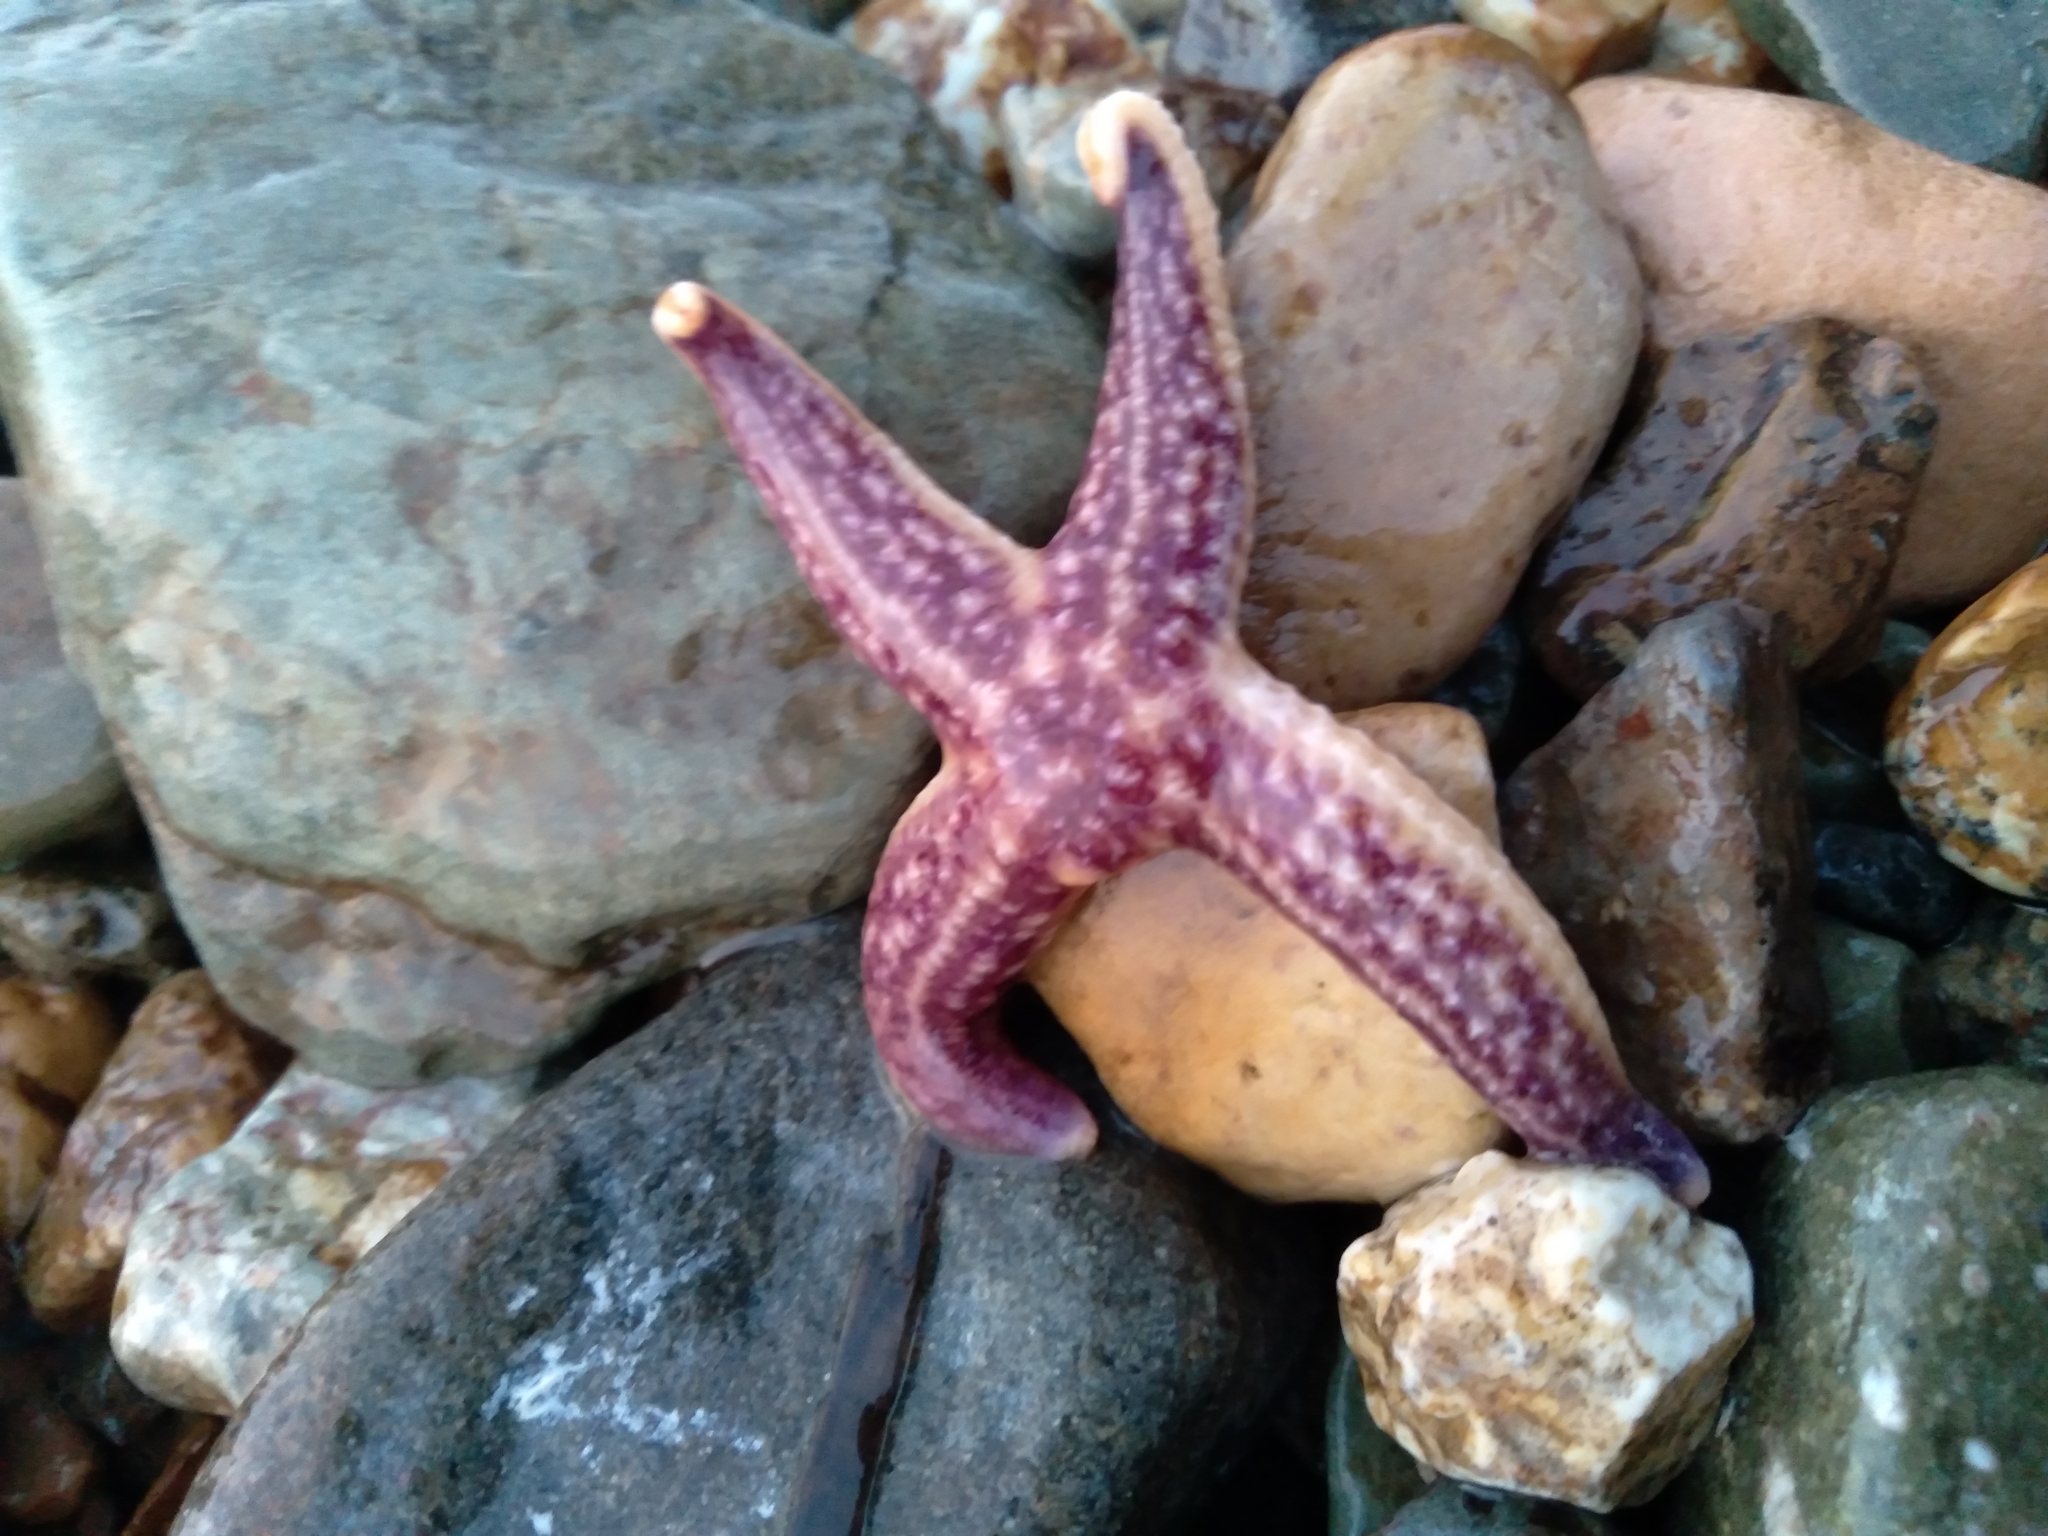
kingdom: Animalia
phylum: Echinodermata
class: Asteroidea
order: Forcipulatida
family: Asteriidae
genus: Asterias
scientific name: Asterias amurensis
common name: Flat-bottomed star
